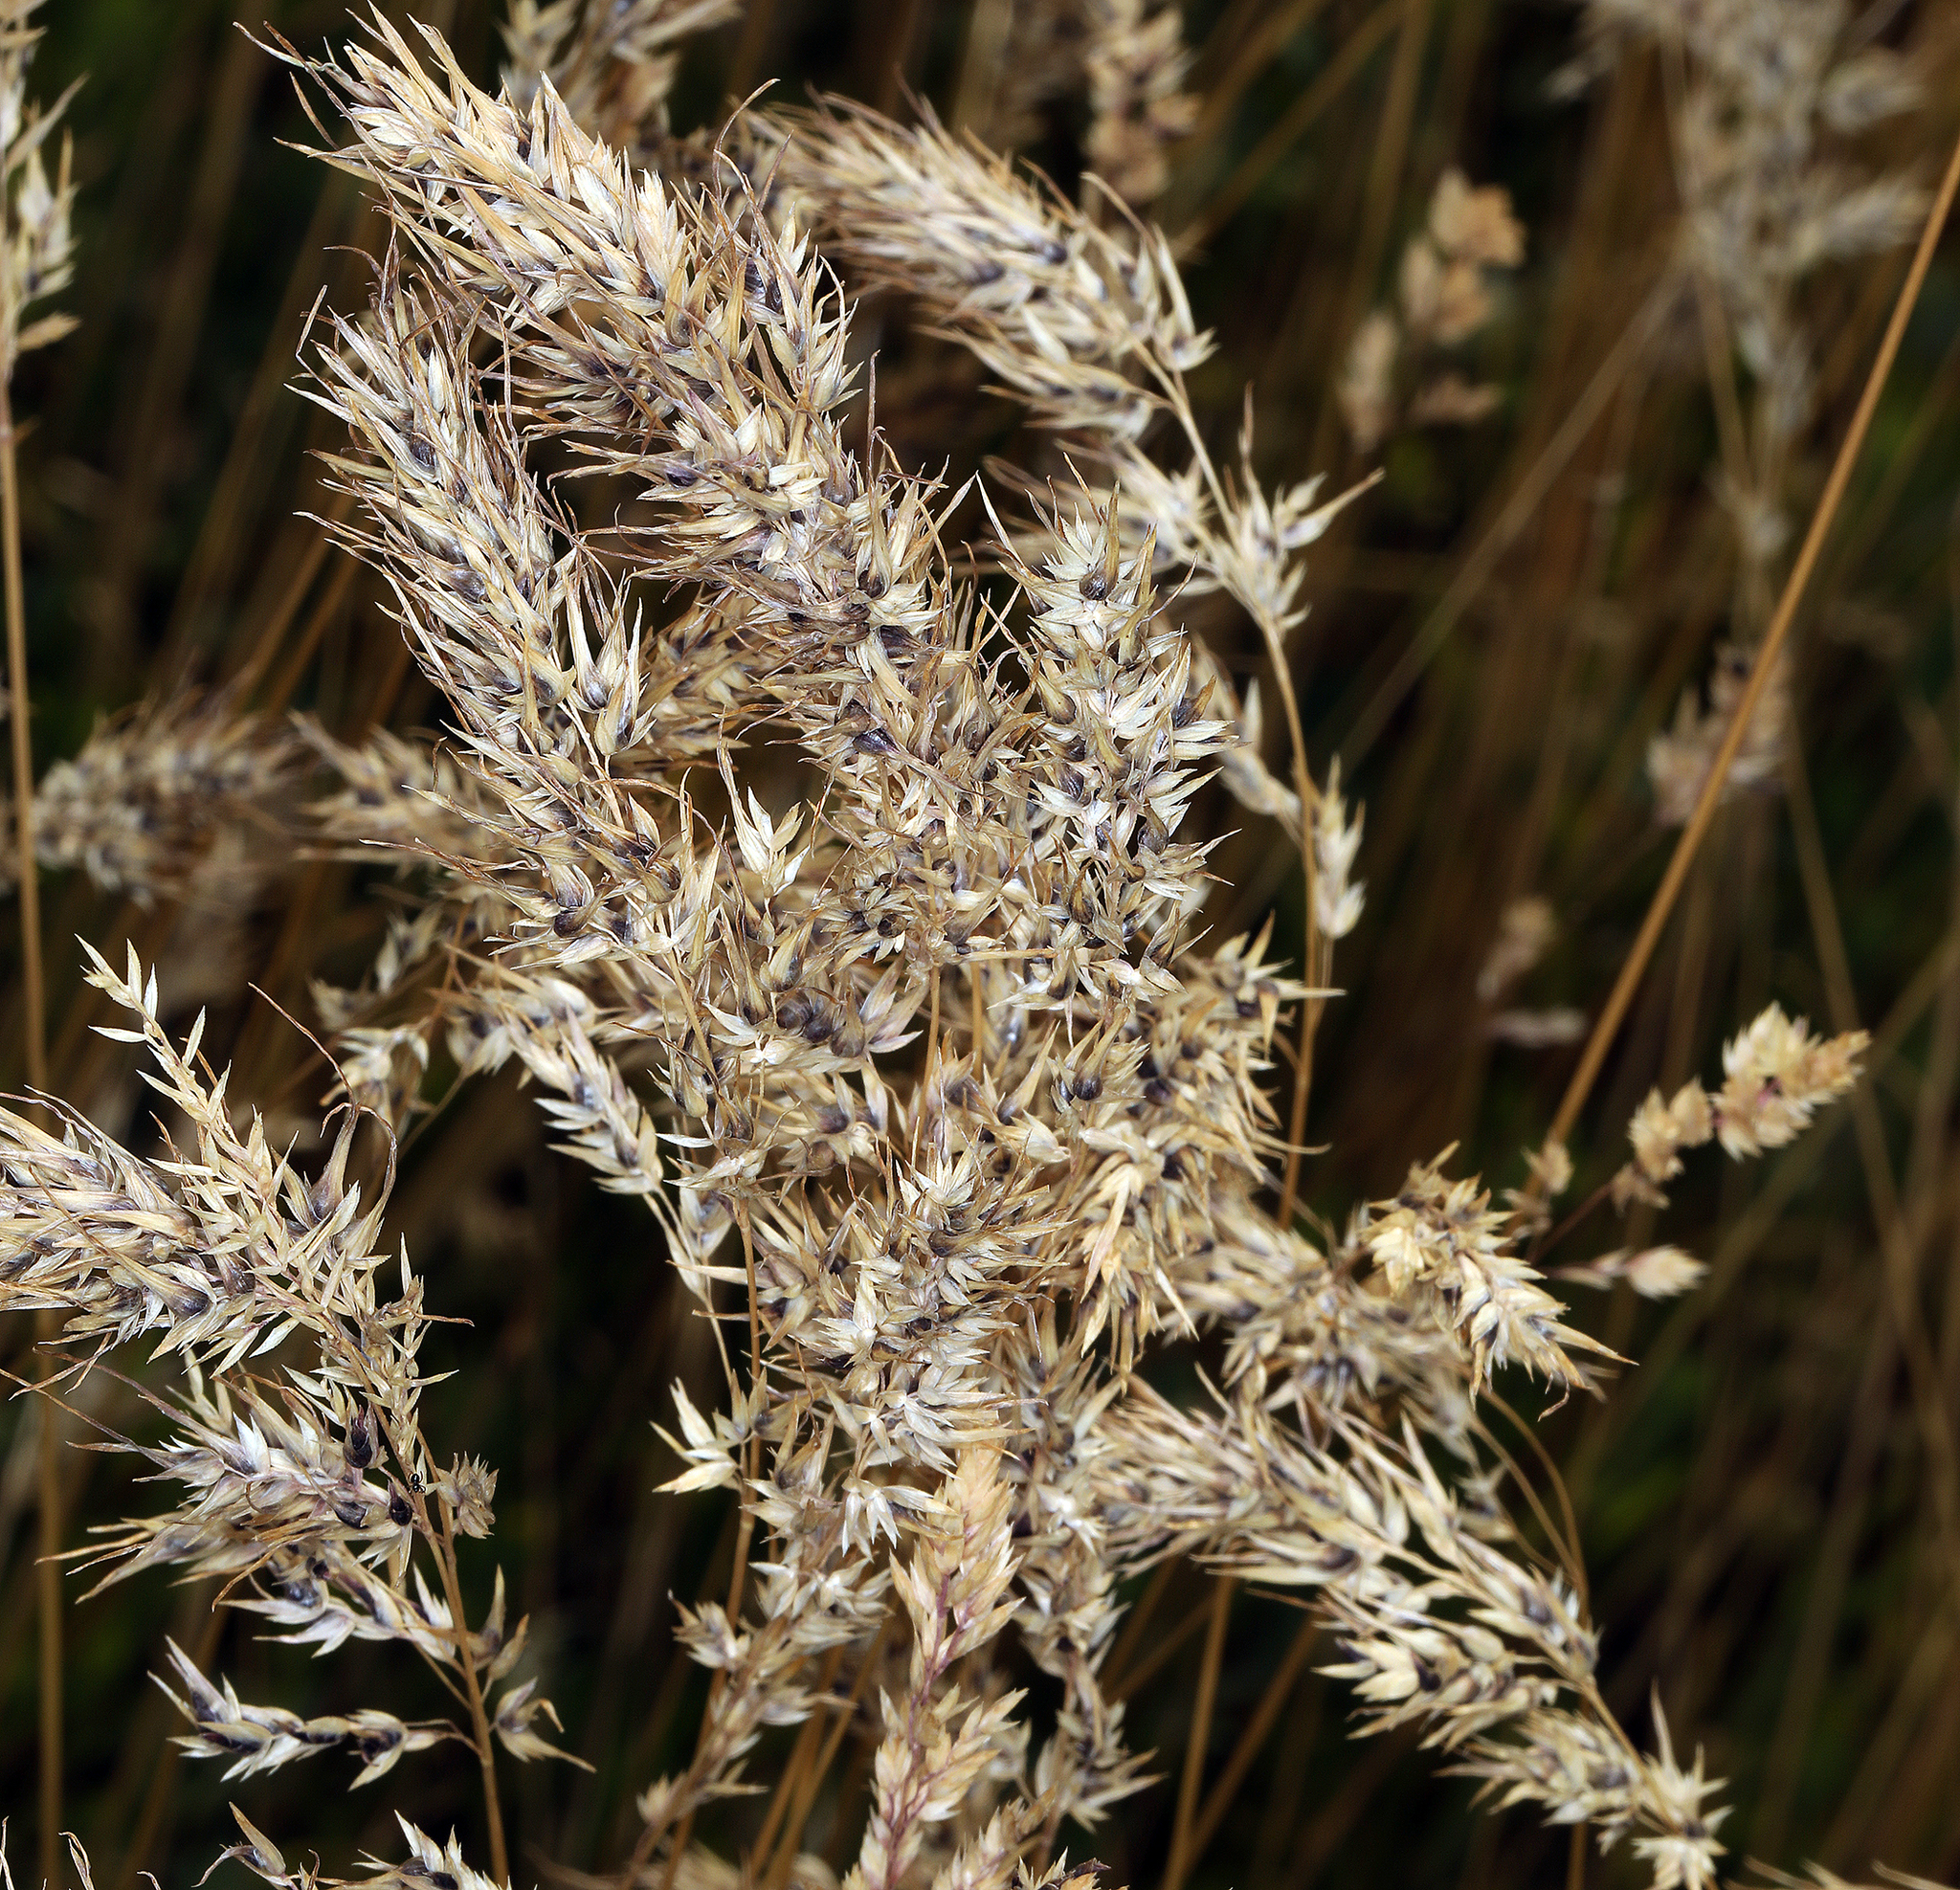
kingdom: Plantae
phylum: Tracheophyta
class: Liliopsida
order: Poales
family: Poaceae
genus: Poa
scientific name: Poa bulbosa
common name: Bulbous bluegrass
